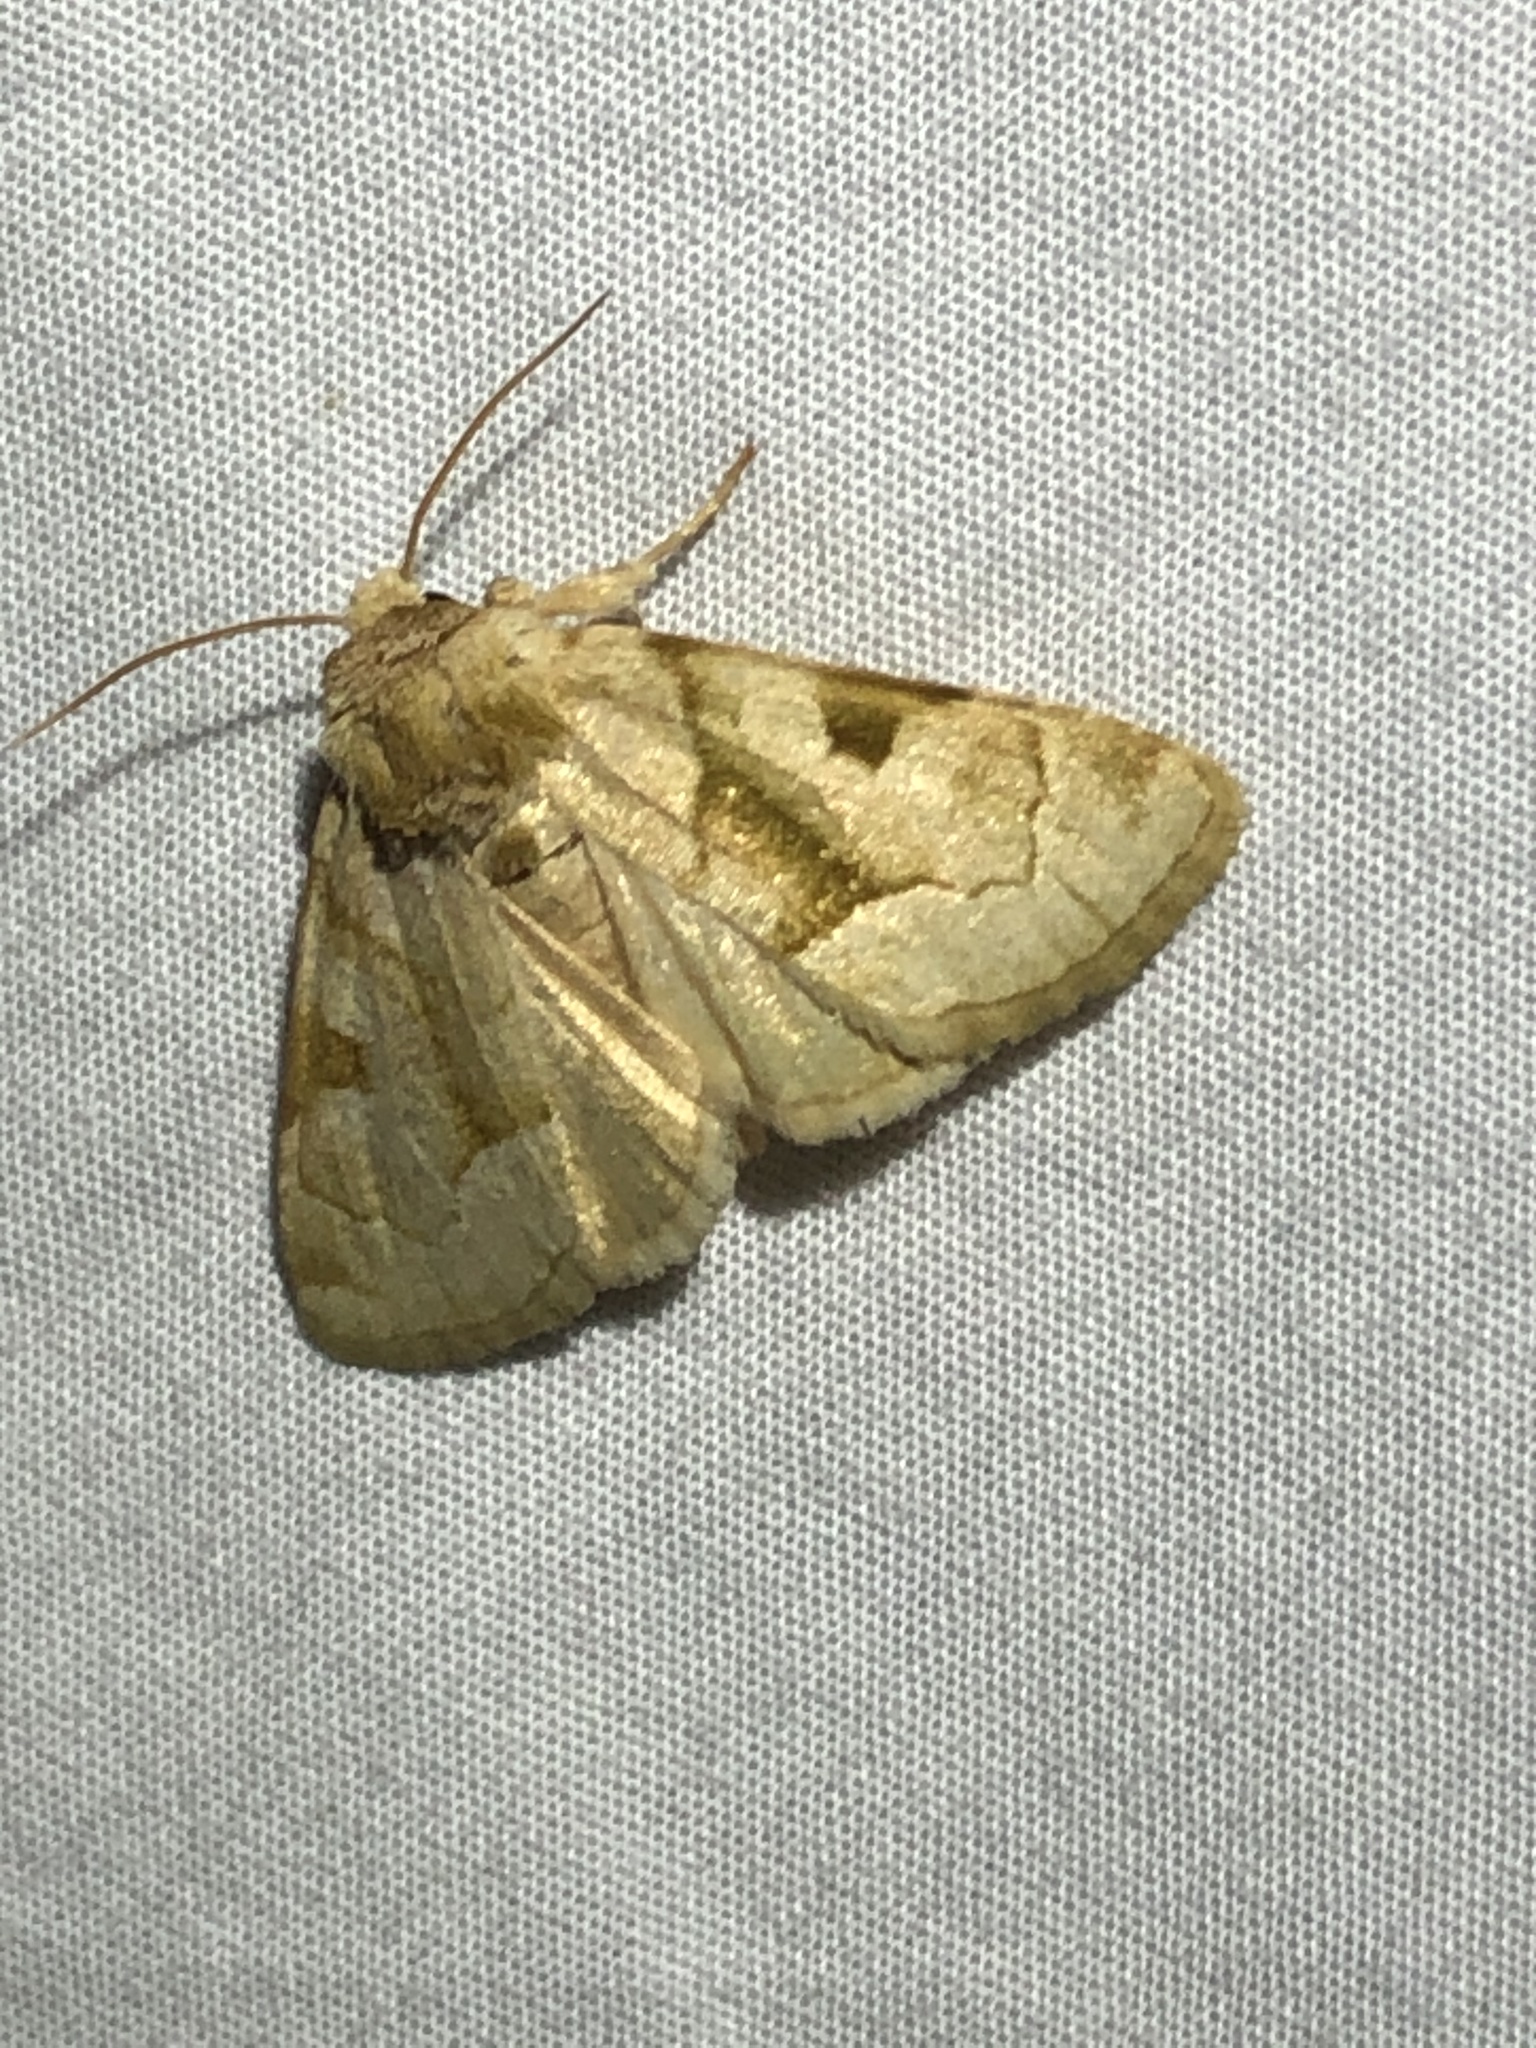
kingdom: Animalia
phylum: Arthropoda
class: Insecta
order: Lepidoptera
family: Noctuidae
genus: Oslaria
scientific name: Oslaria viridifera
